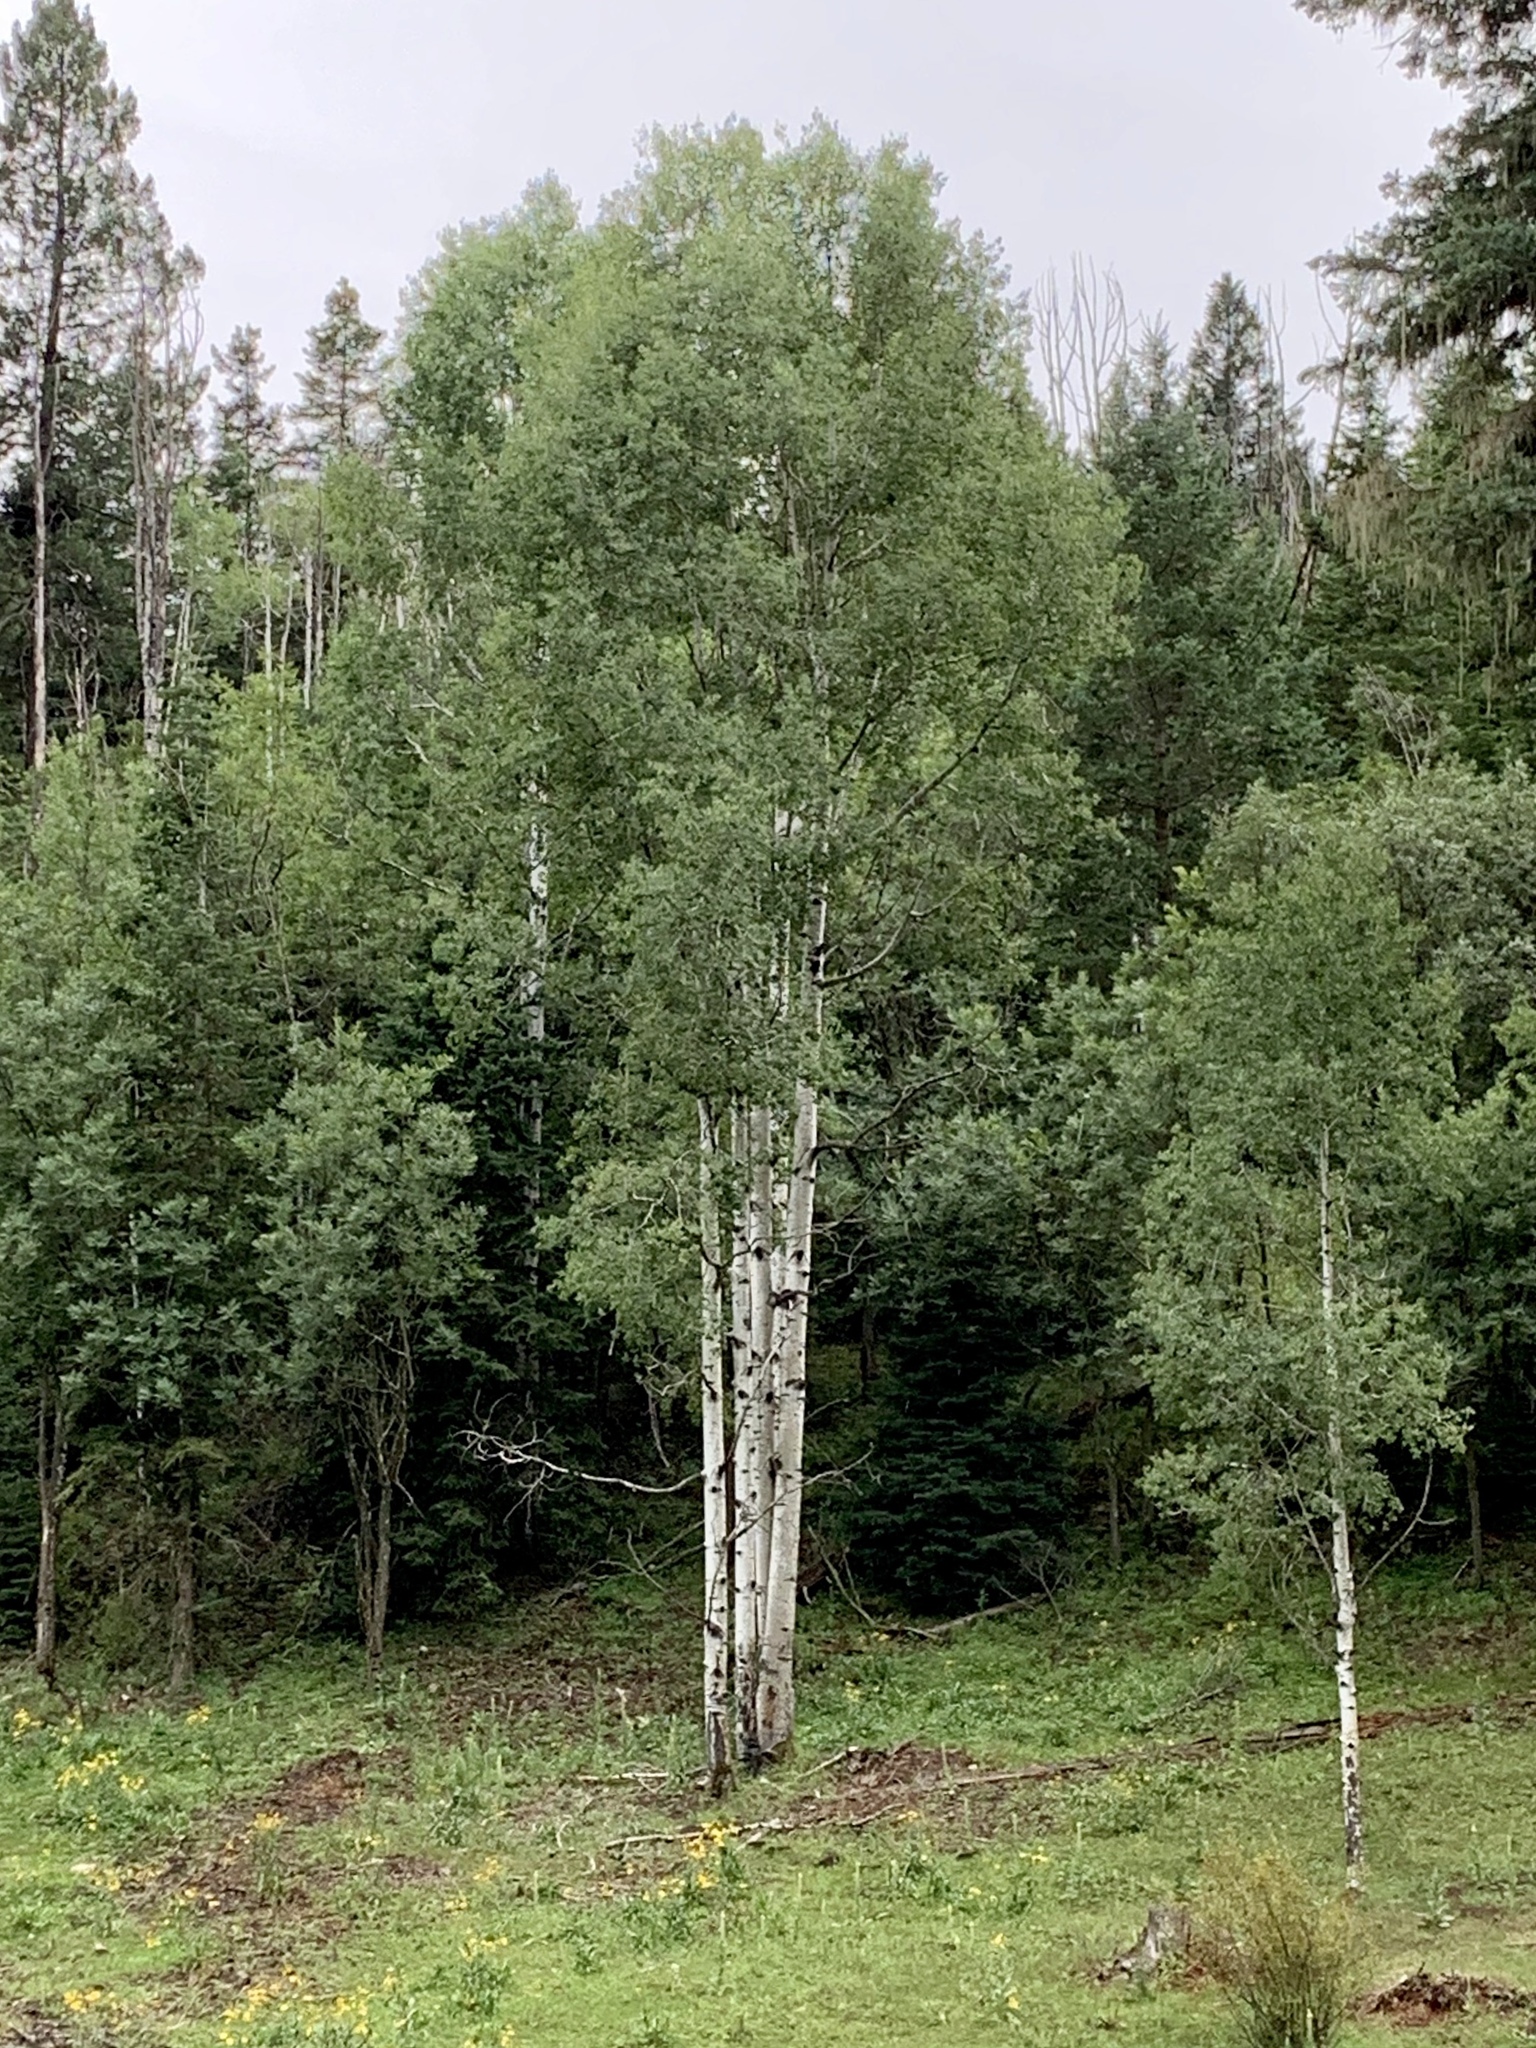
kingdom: Plantae
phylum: Tracheophyta
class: Magnoliopsida
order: Malpighiales
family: Salicaceae
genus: Populus
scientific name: Populus tremuloides
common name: Quaking aspen
